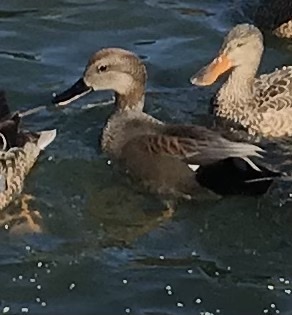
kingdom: Animalia
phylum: Chordata
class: Aves
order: Anseriformes
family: Anatidae
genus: Mareca
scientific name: Mareca strepera
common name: Gadwall
